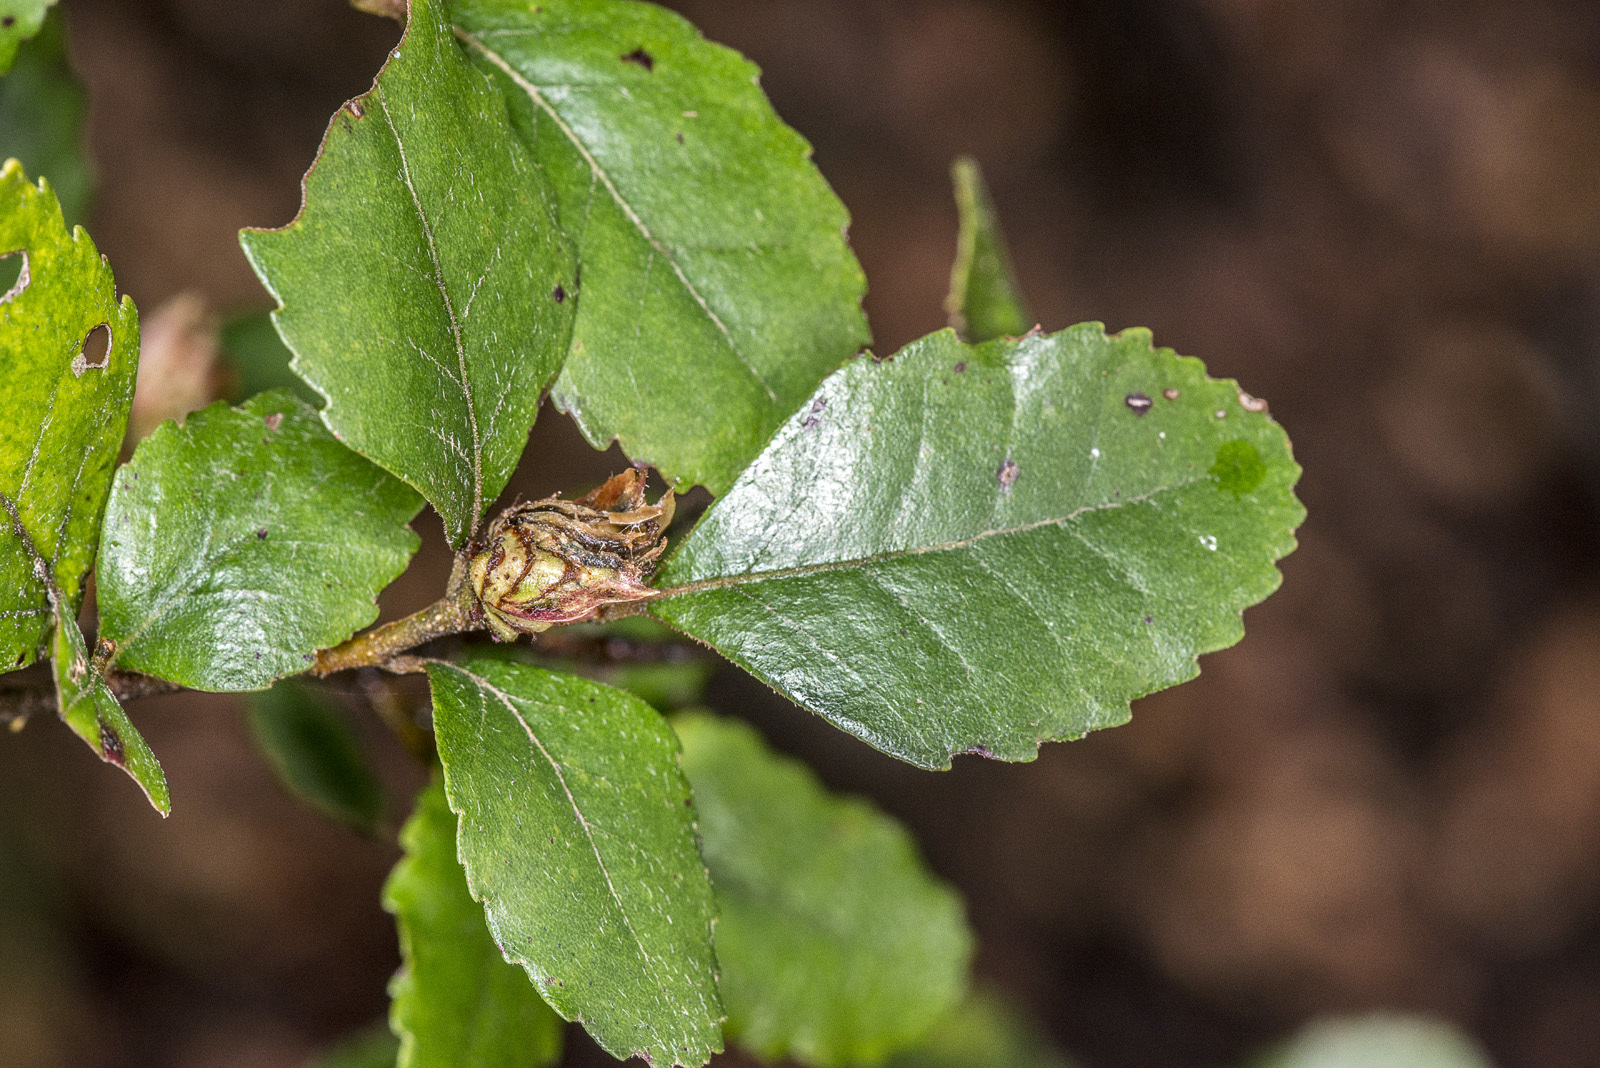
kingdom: Plantae
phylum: Tracheophyta
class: Magnoliopsida
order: Fagales
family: Nothofagaceae
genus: Nothofagus
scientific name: Nothofagus truncata
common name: Hard beech
